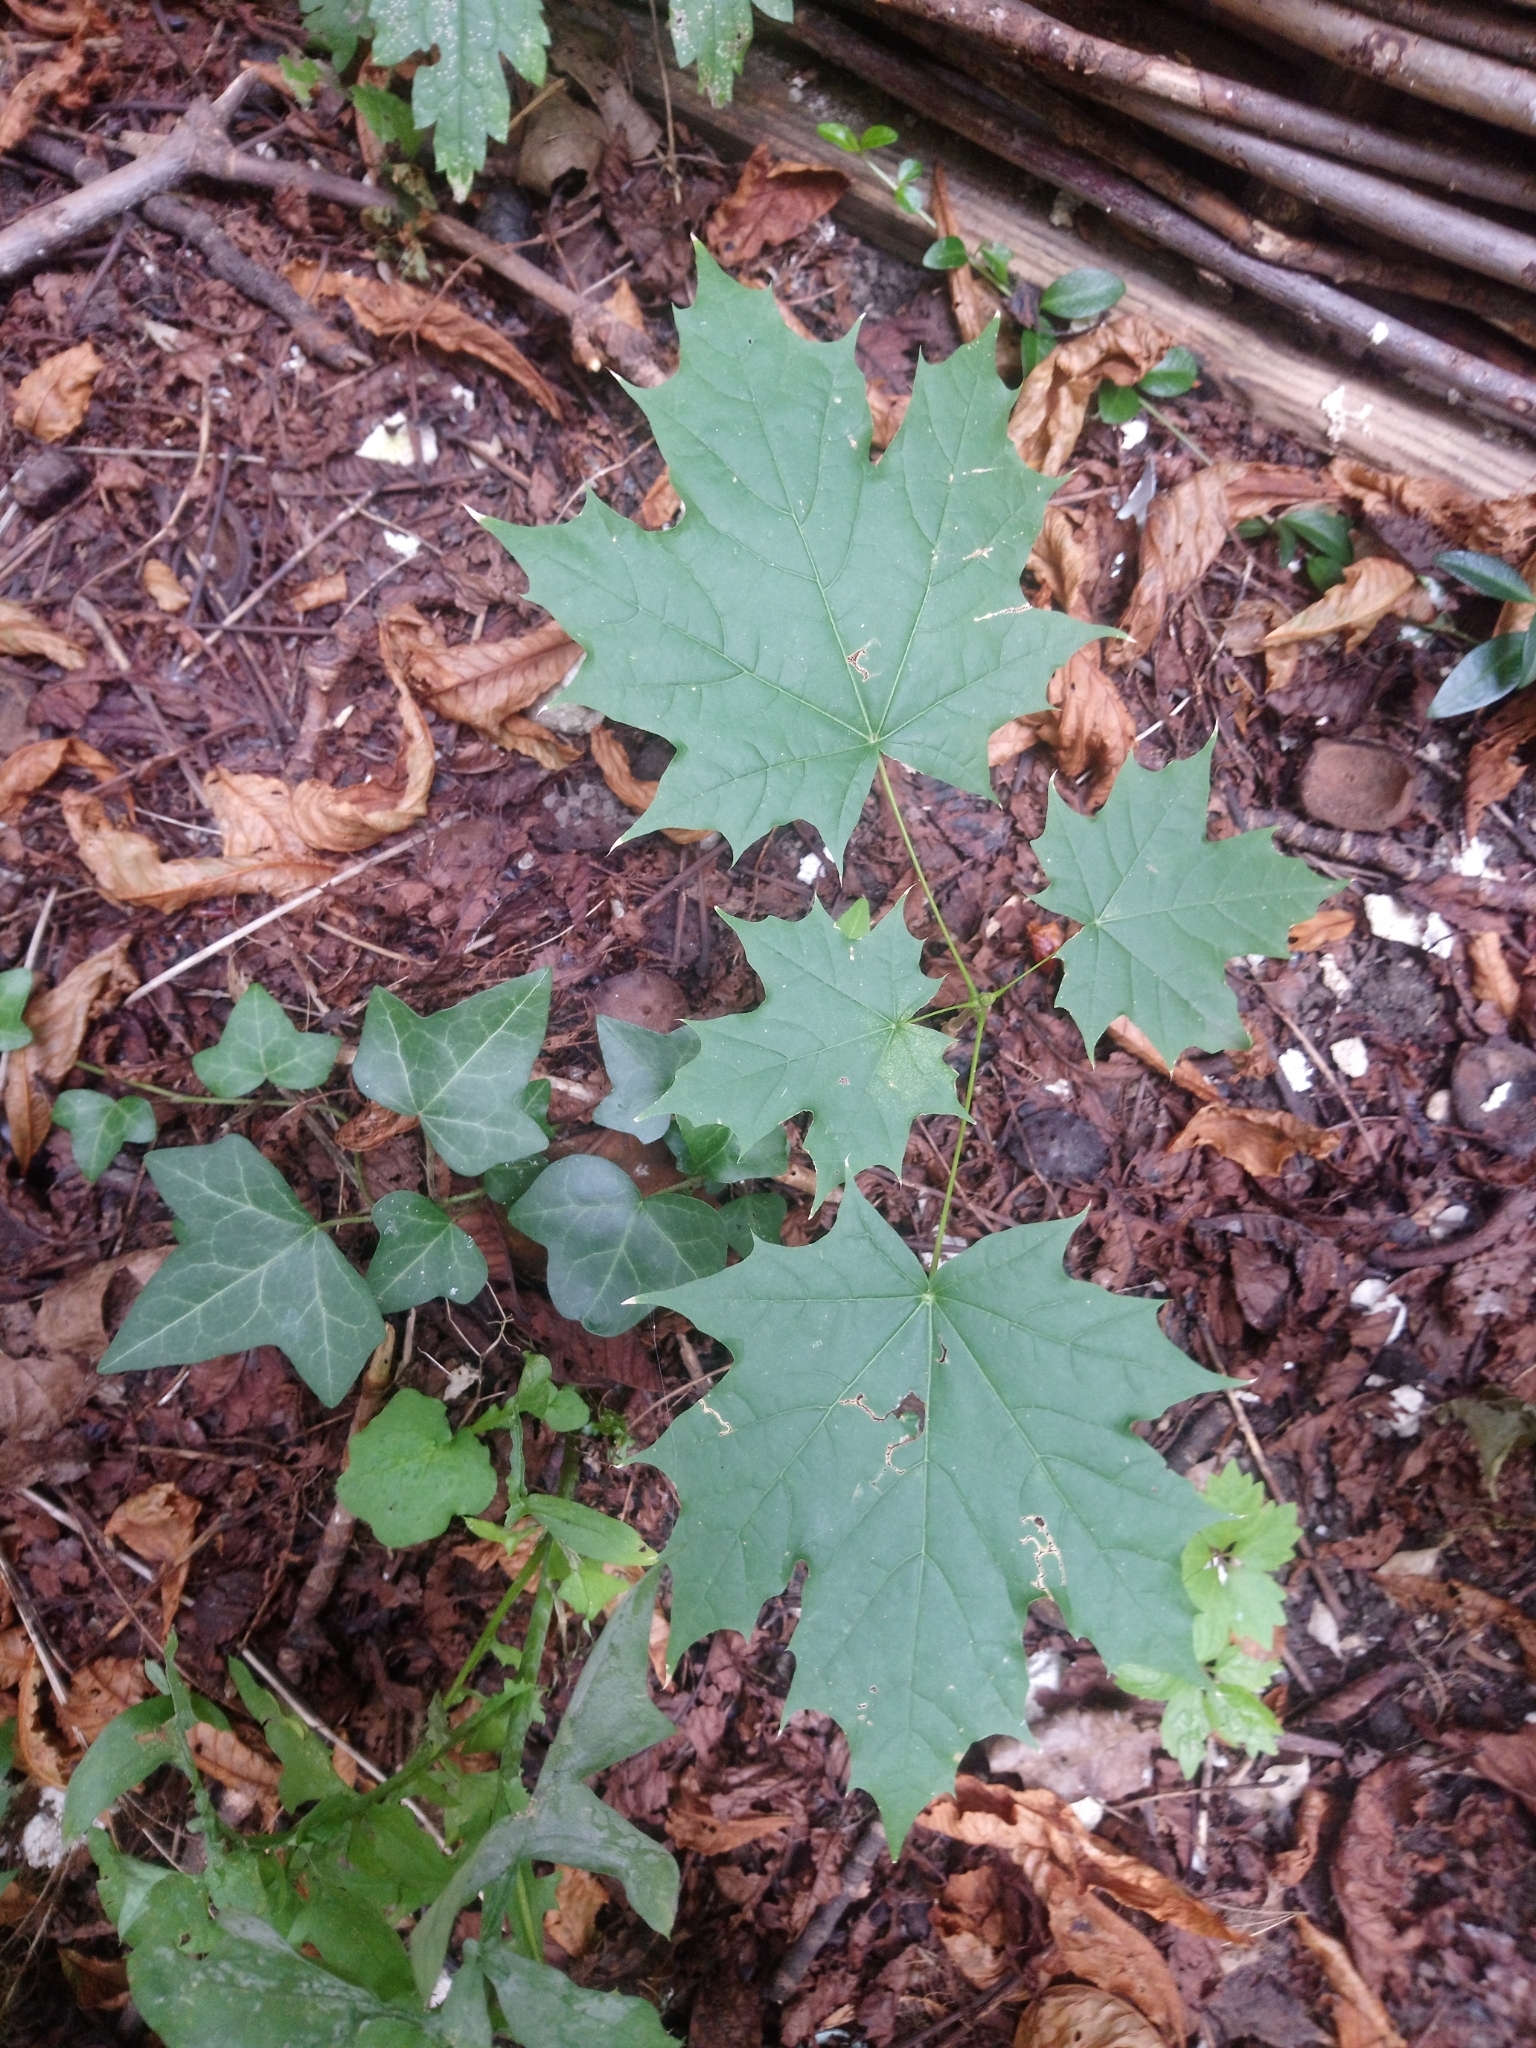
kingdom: Plantae
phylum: Tracheophyta
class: Magnoliopsida
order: Sapindales
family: Sapindaceae
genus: Acer
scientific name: Acer platanoides
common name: Norway maple
